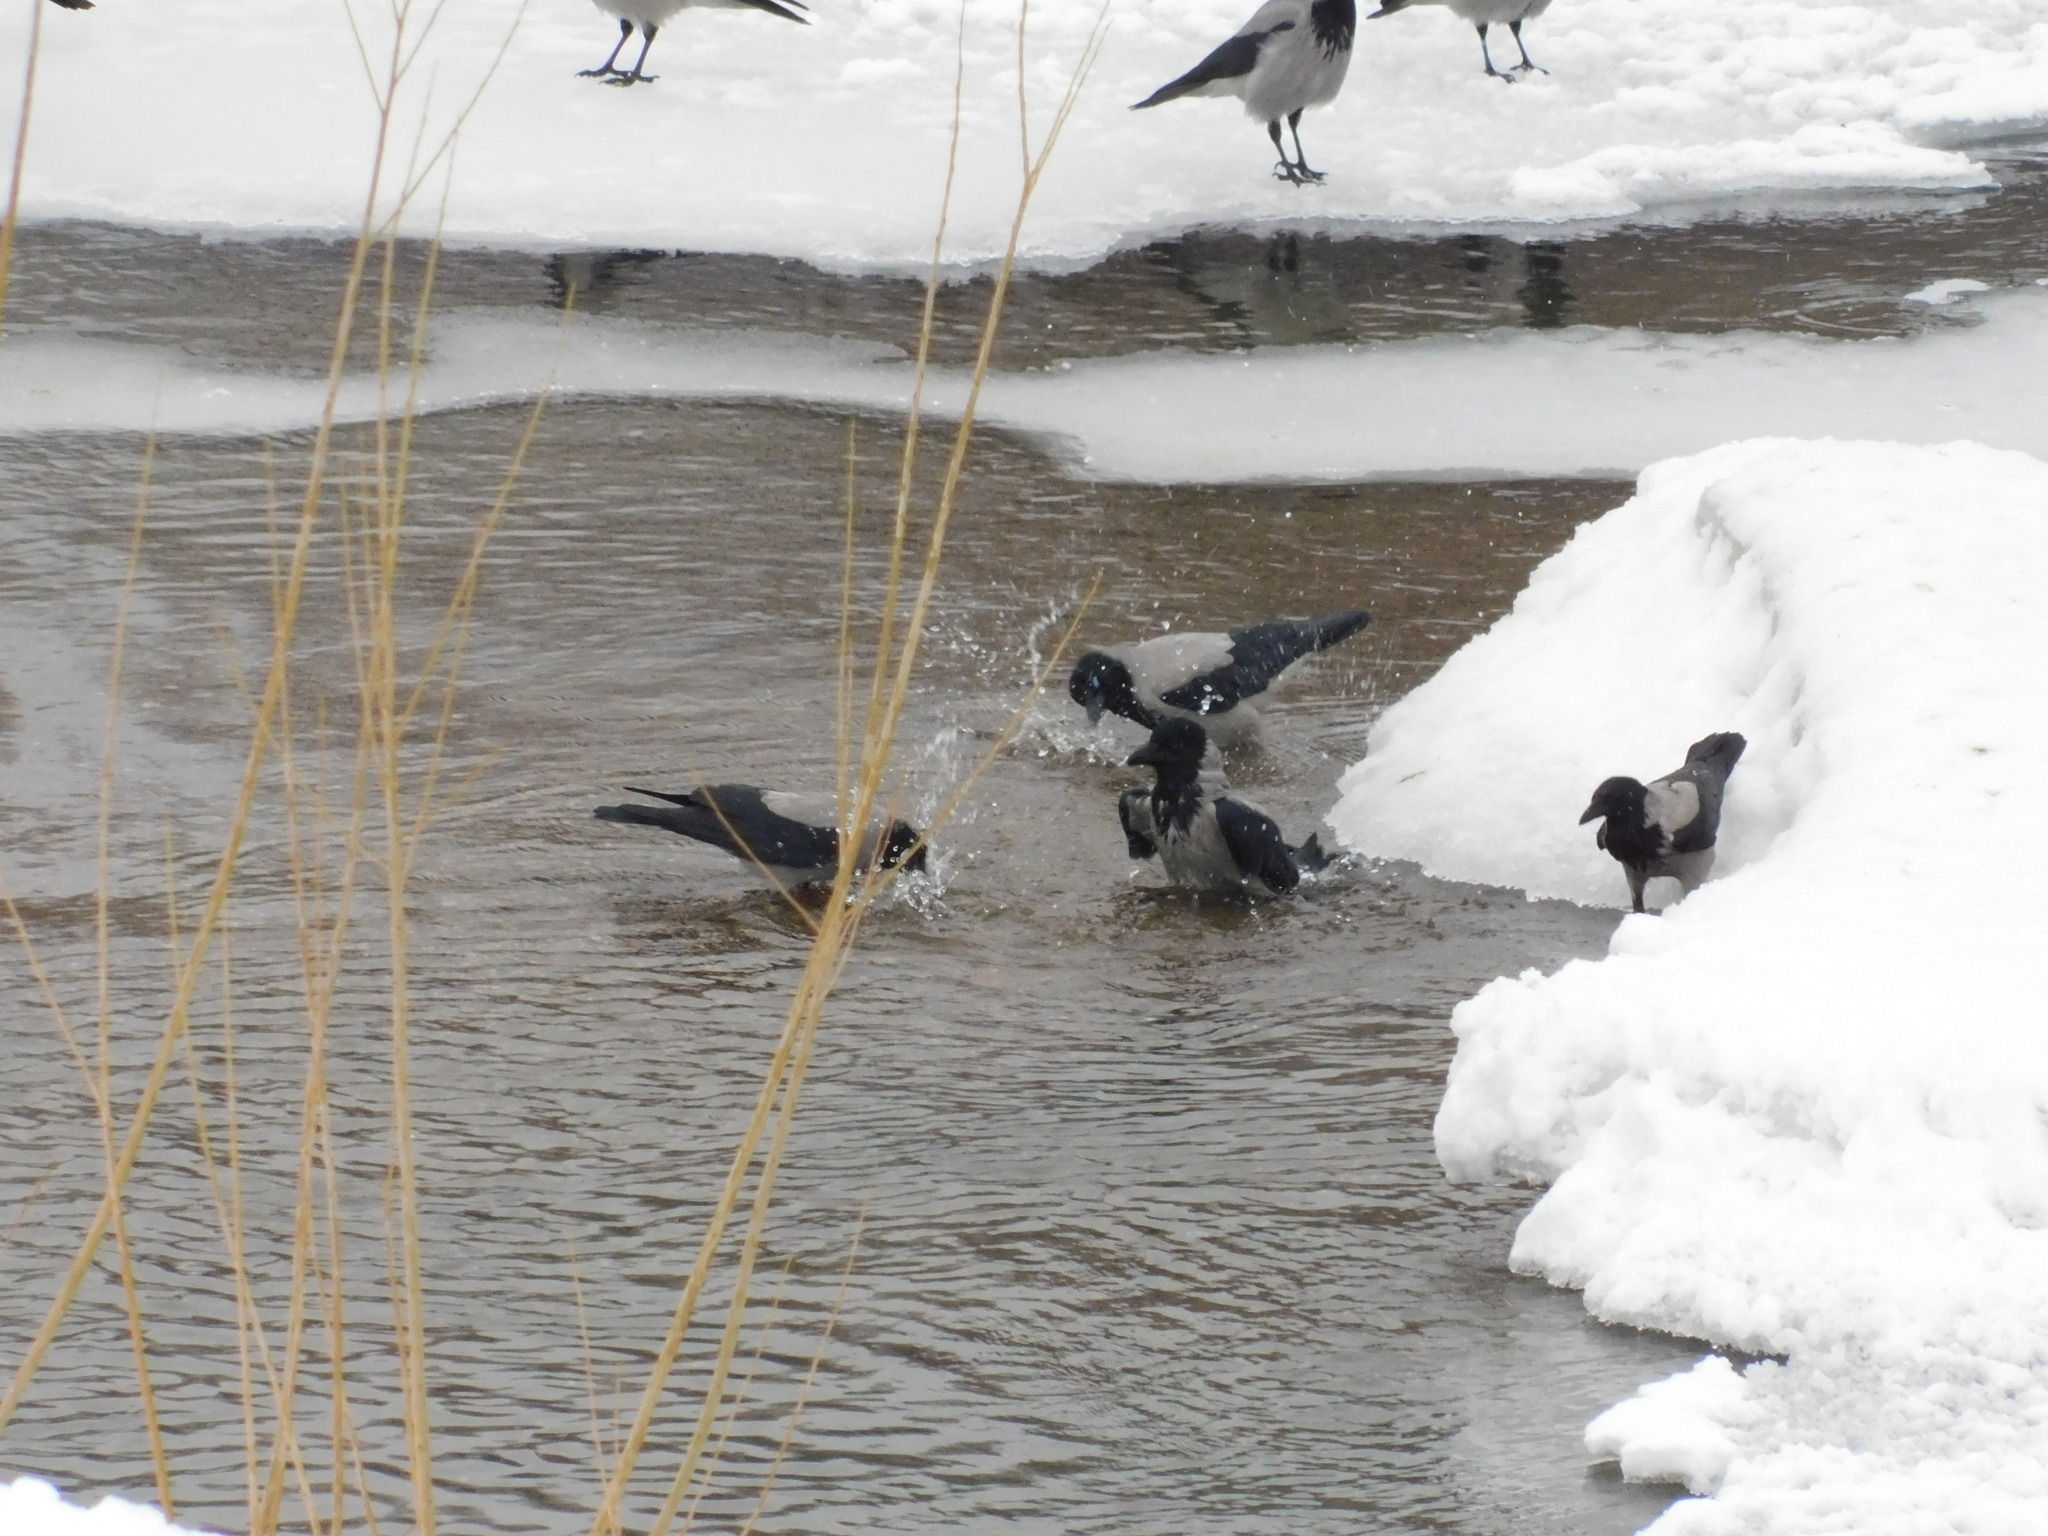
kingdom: Animalia
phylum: Chordata
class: Aves
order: Passeriformes
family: Corvidae
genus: Corvus
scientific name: Corvus cornix
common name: Hooded crow
